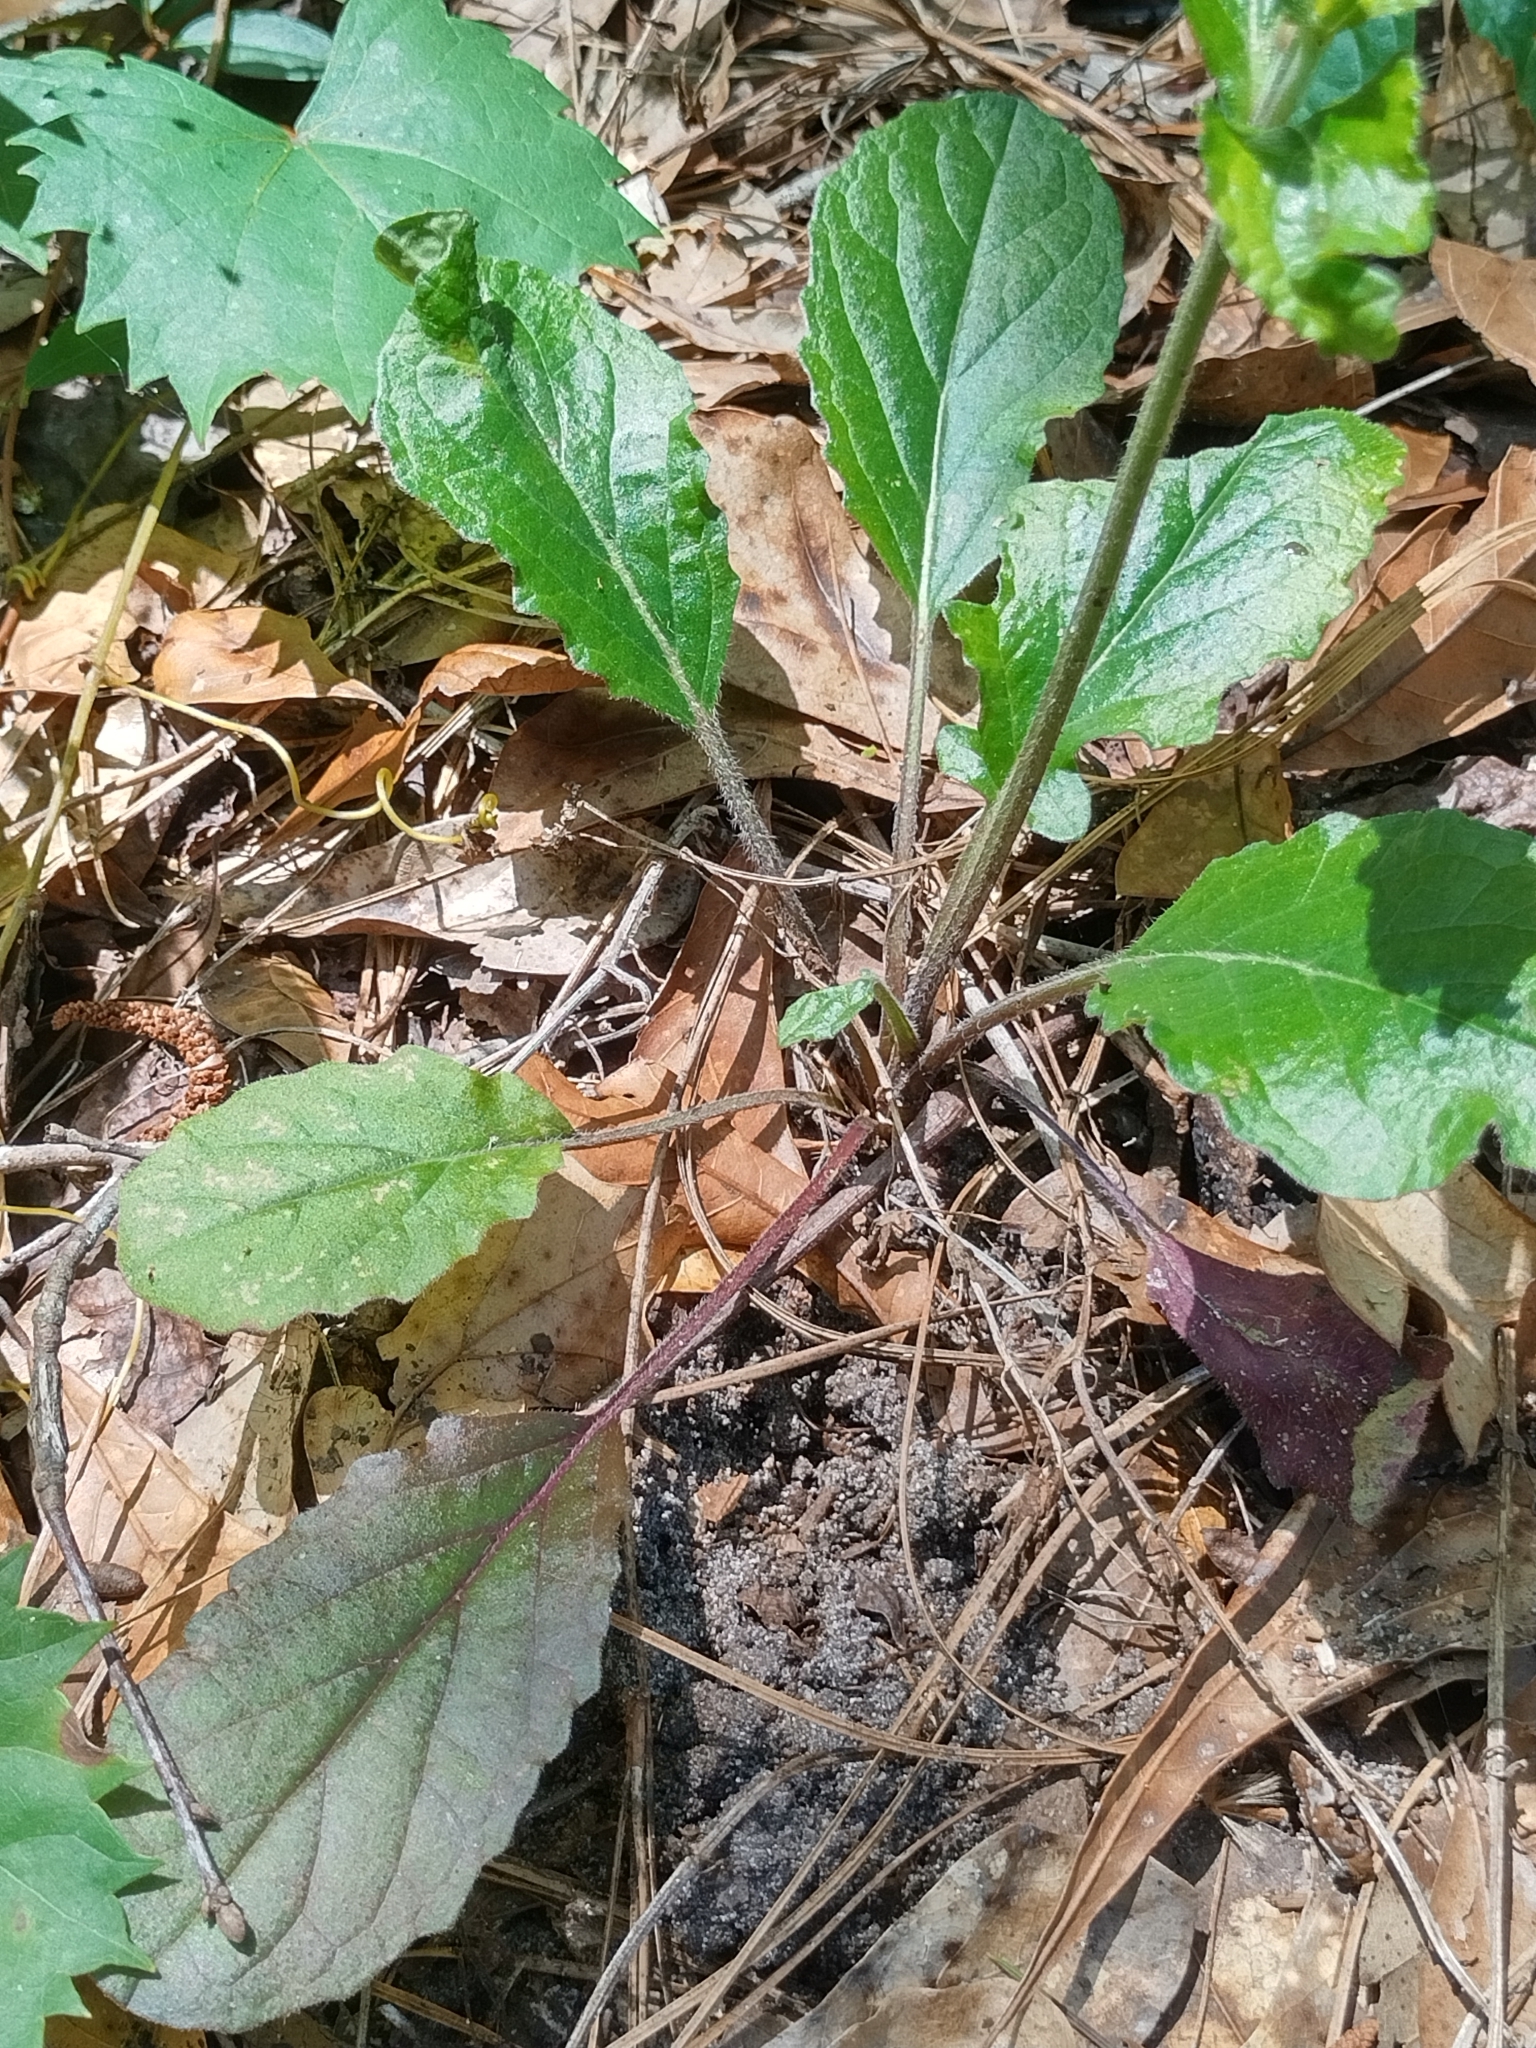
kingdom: Plantae
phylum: Tracheophyta
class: Magnoliopsida
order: Lamiales
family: Lamiaceae
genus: Salvia
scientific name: Salvia lyrata
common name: Cancerweed
